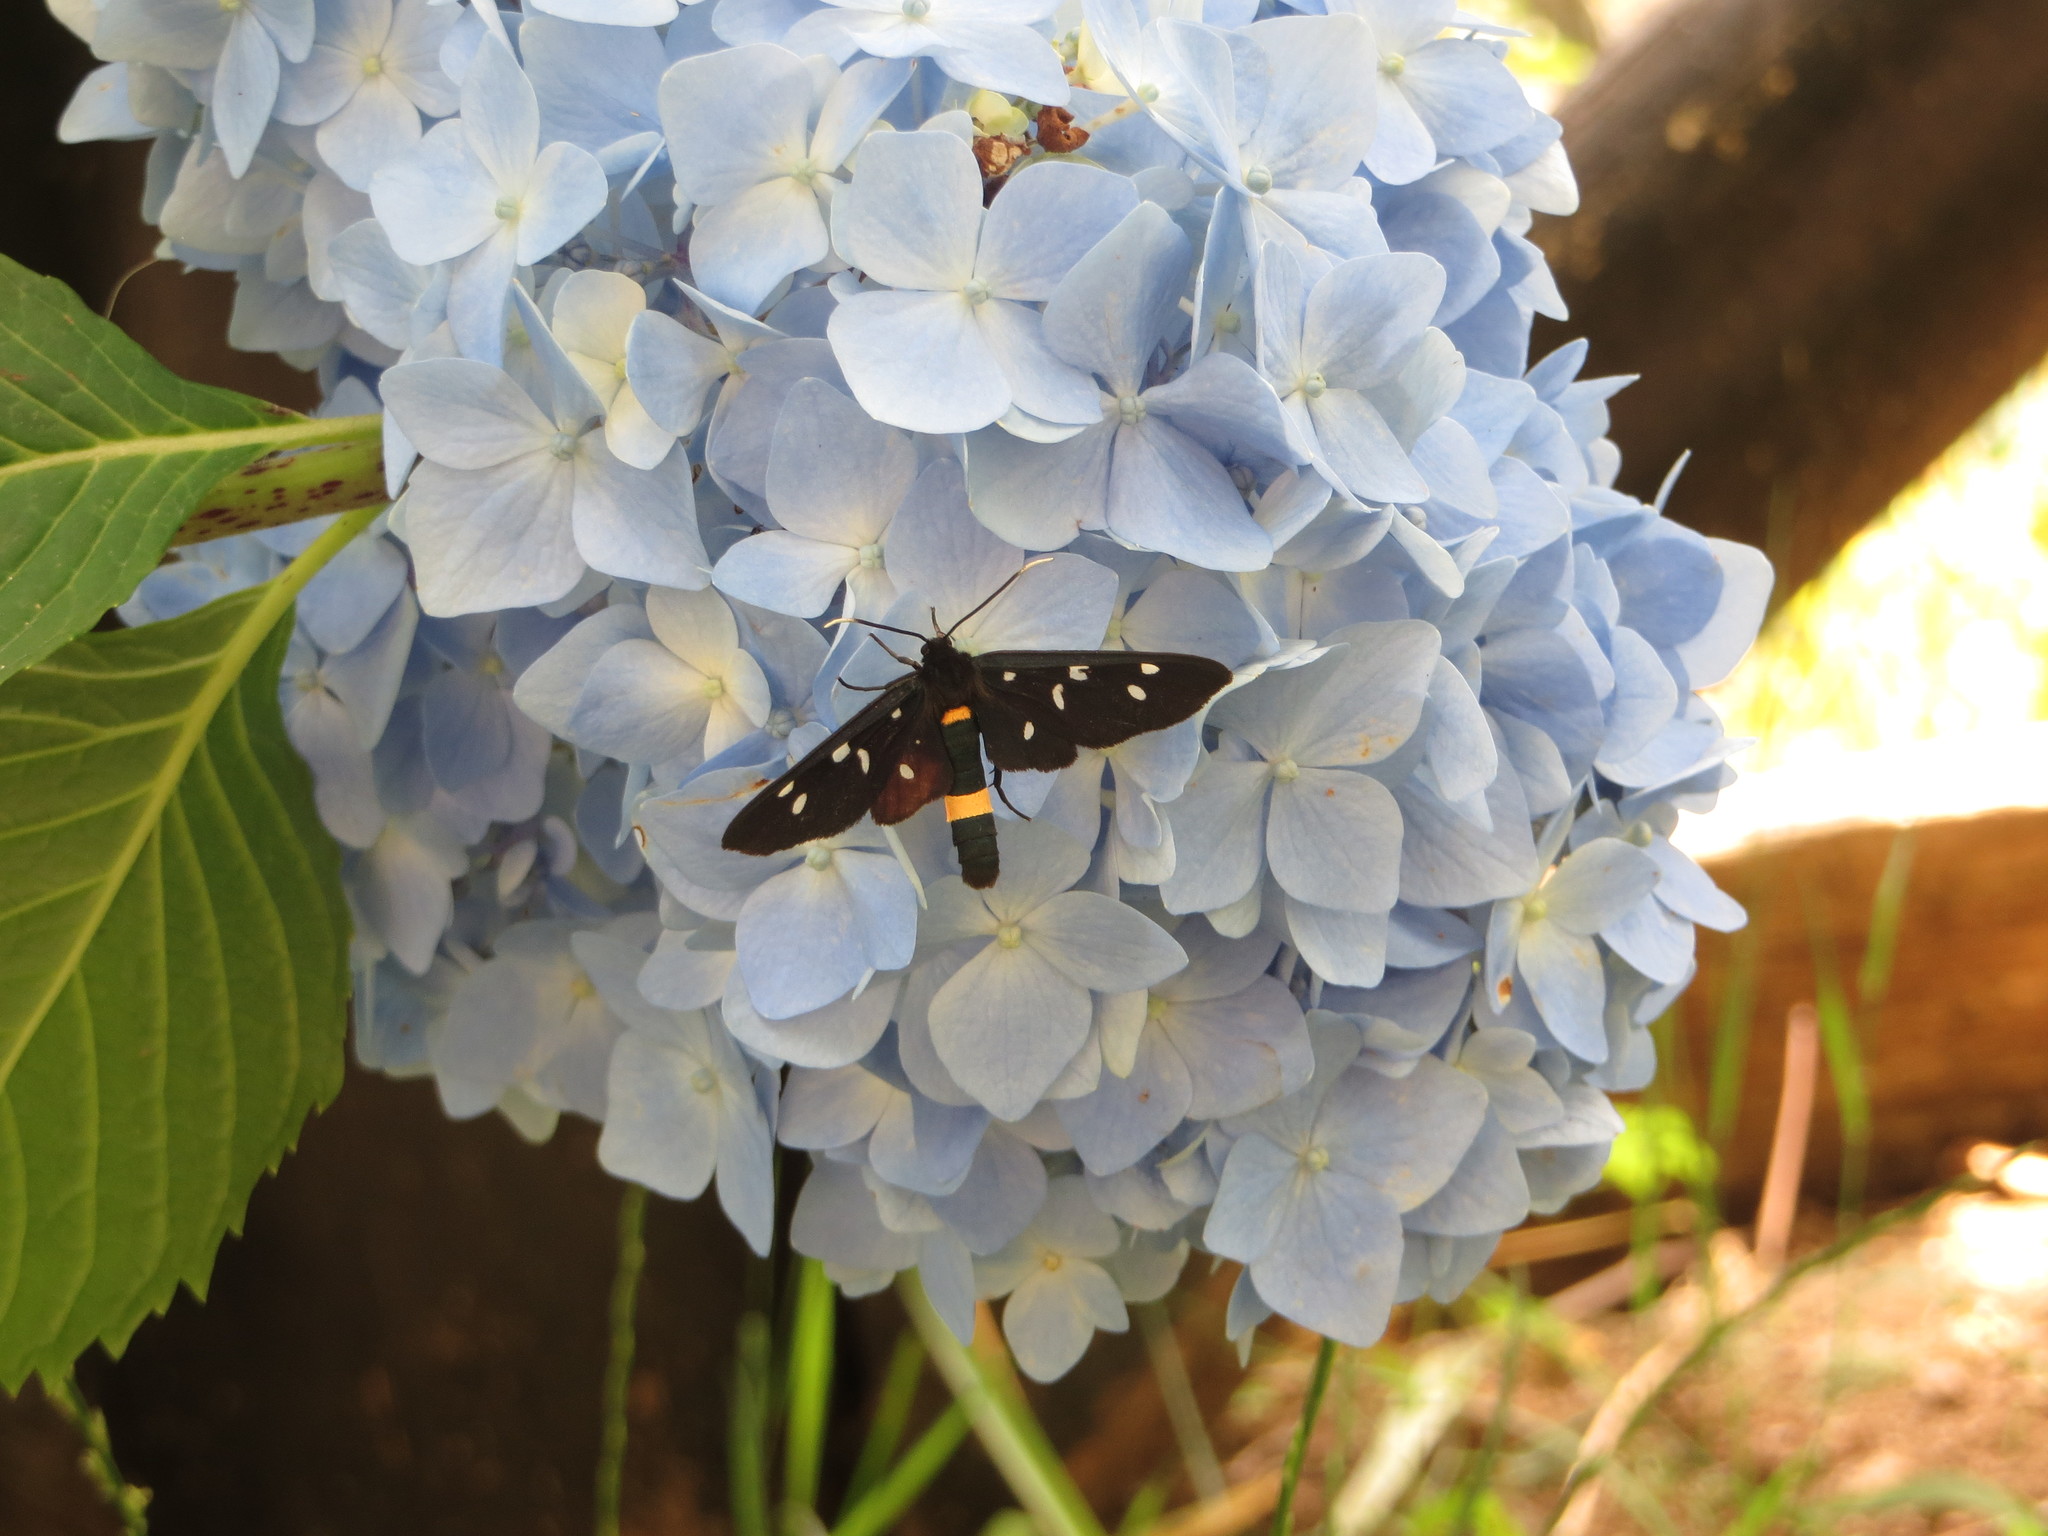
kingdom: Animalia
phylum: Arthropoda
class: Insecta
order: Lepidoptera
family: Erebidae
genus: Amata
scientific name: Amata phegea
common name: Nine-spotted
